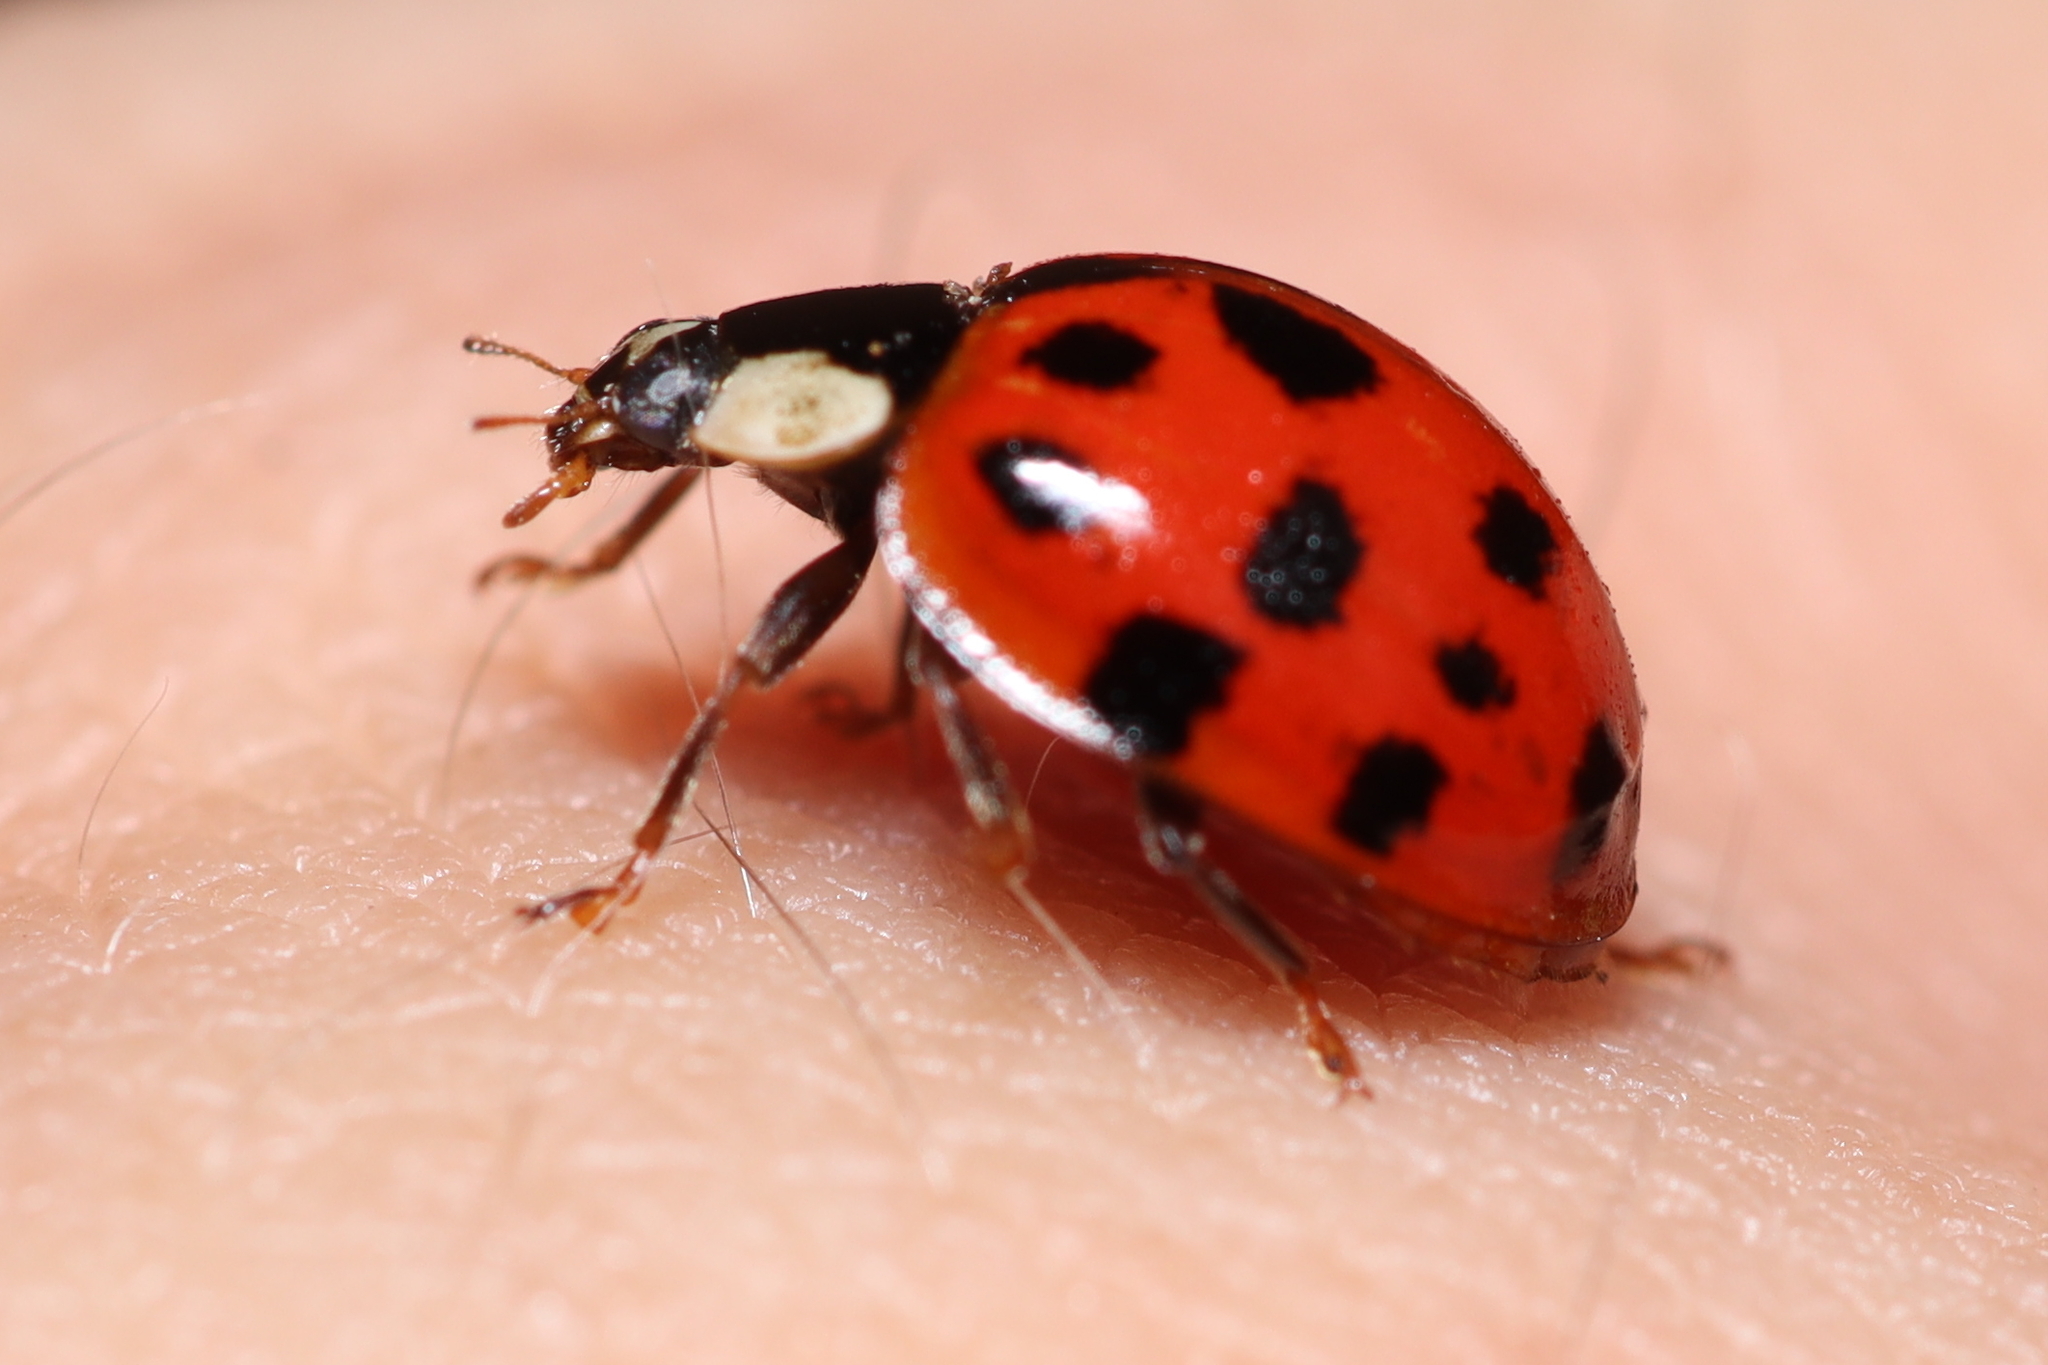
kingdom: Animalia
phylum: Arthropoda
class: Insecta
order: Coleoptera
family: Coccinellidae
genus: Harmonia
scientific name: Harmonia axyridis
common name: Harlequin ladybird
